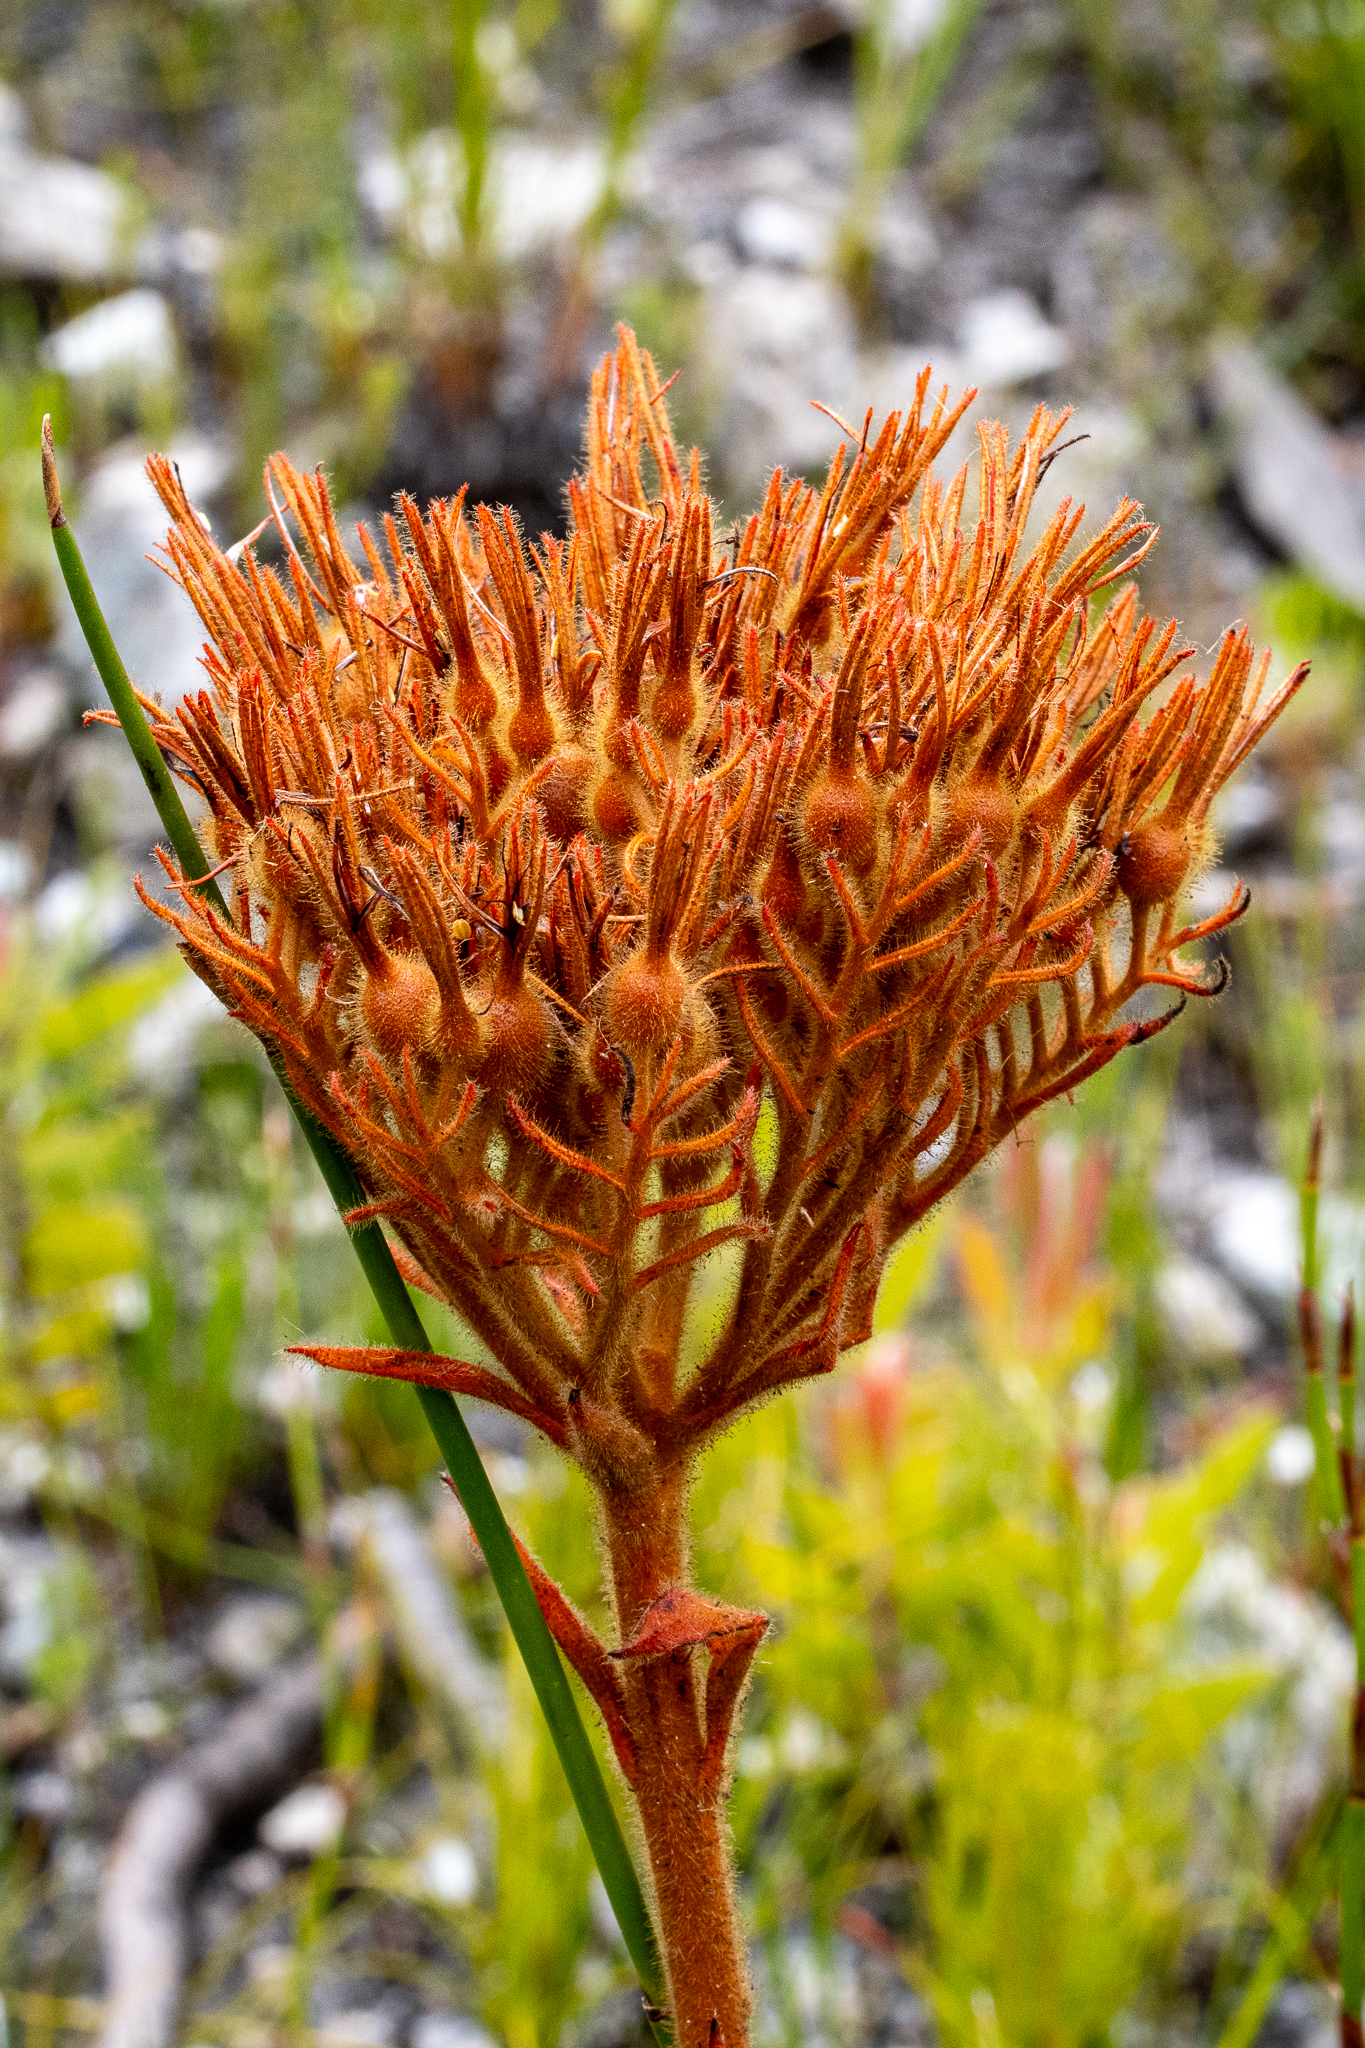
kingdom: Plantae
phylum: Tracheophyta
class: Liliopsida
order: Commelinales
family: Haemodoraceae
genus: Dilatris
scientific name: Dilatris viscosa
